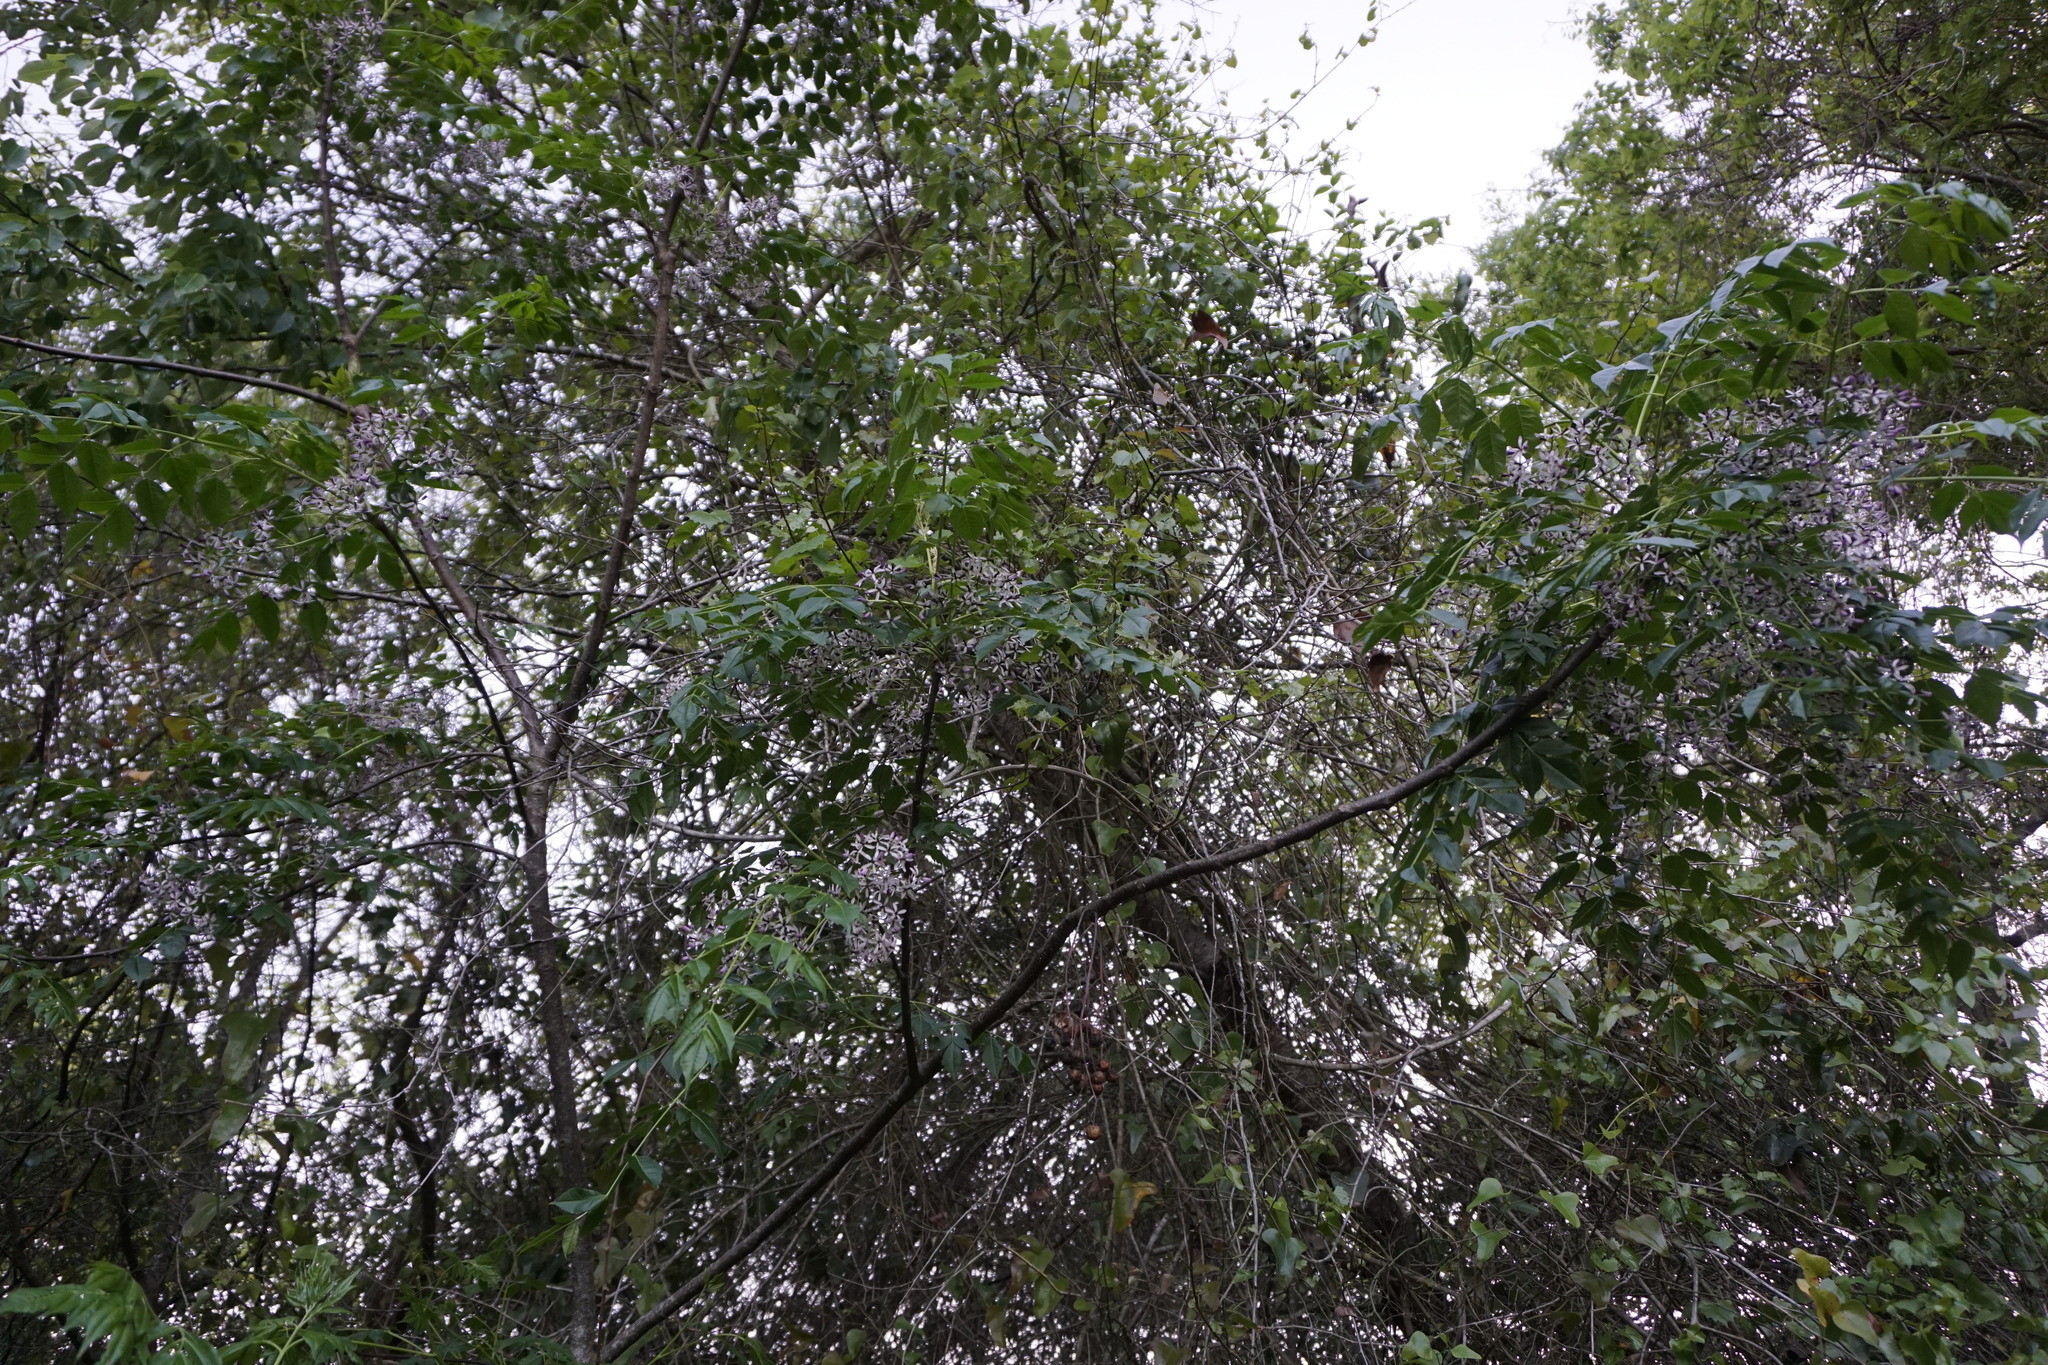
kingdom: Plantae
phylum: Tracheophyta
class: Magnoliopsida
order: Sapindales
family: Meliaceae
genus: Melia
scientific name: Melia azedarach
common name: Chinaberrytree
